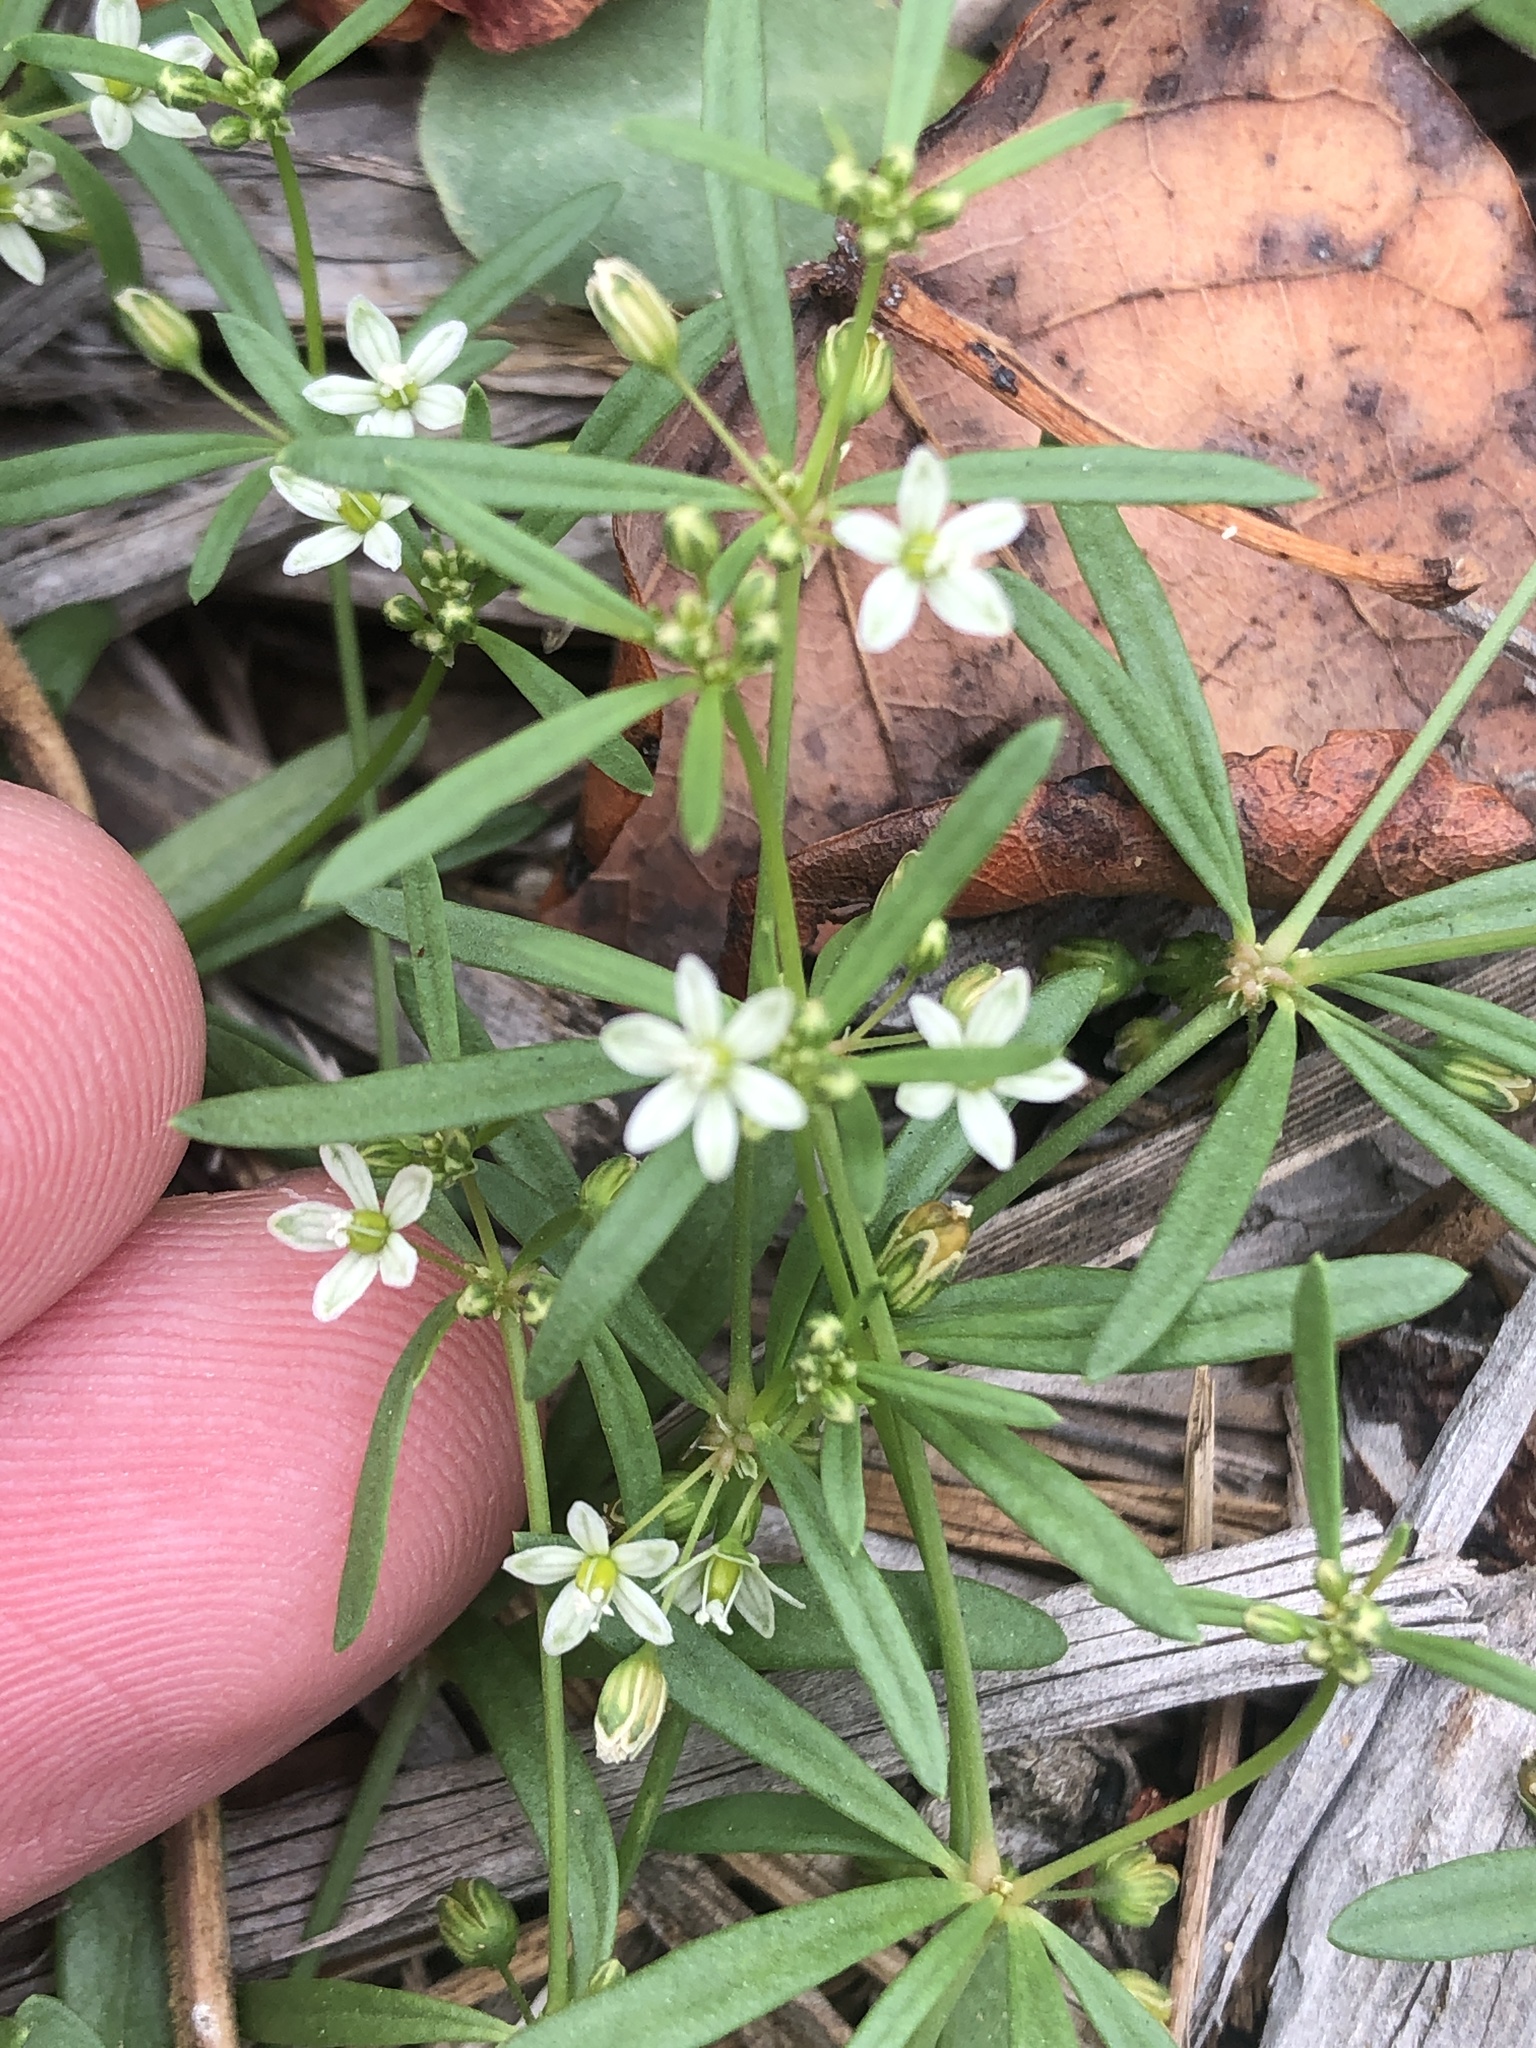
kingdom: Plantae
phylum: Tracheophyta
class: Magnoliopsida
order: Caryophyllales
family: Molluginaceae
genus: Mollugo
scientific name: Mollugo verticillata
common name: Green carpetweed
